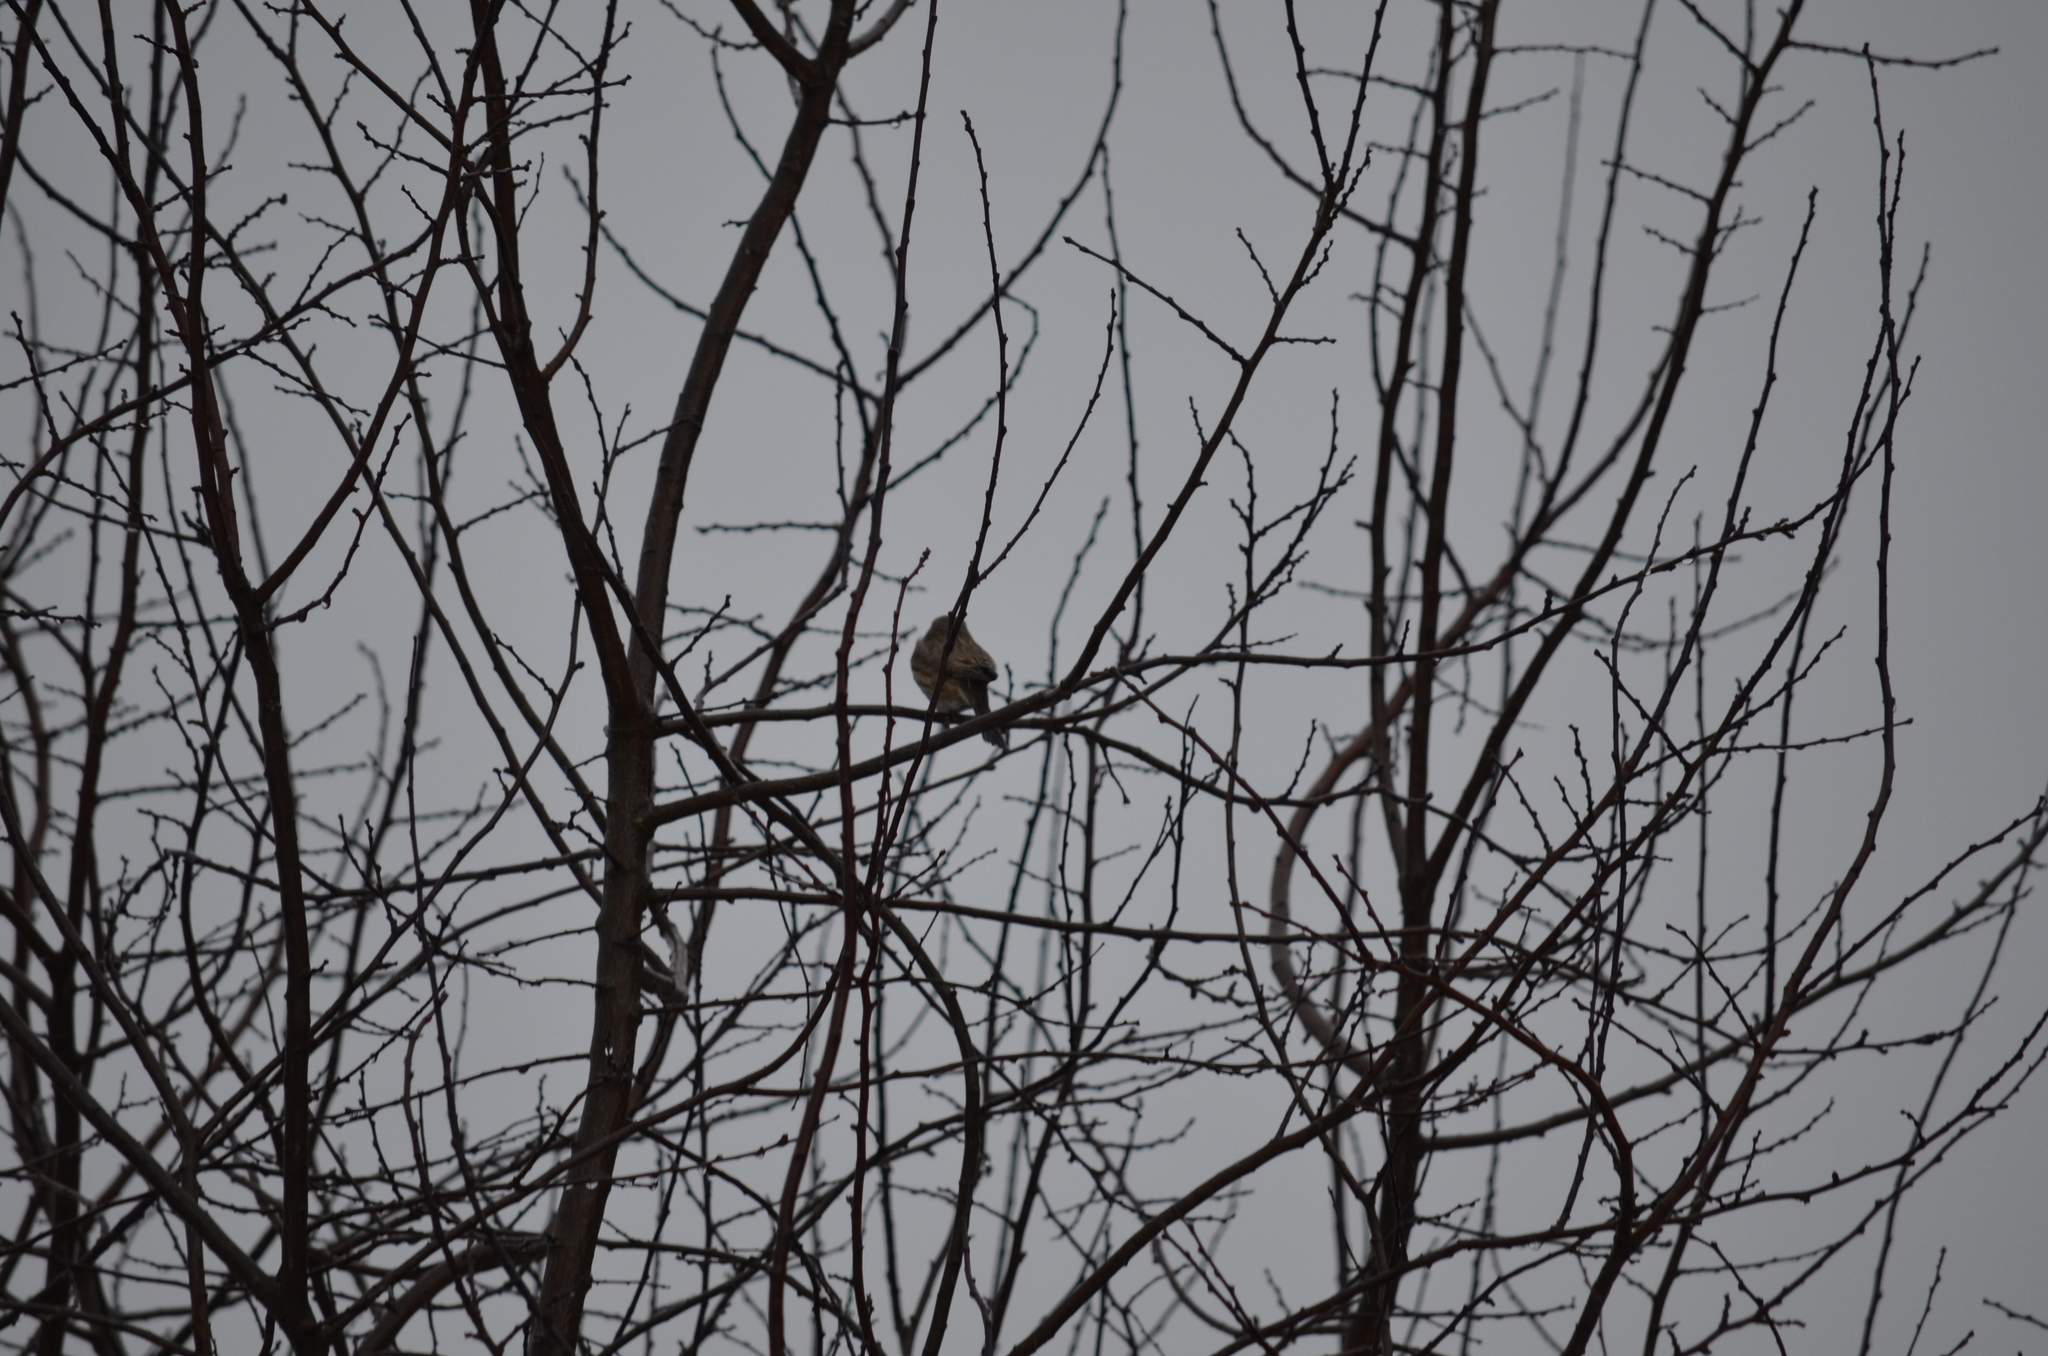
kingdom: Animalia
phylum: Chordata
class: Aves
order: Passeriformes
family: Fringillidae
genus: Haemorhous
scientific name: Haemorhous mexicanus
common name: House finch
